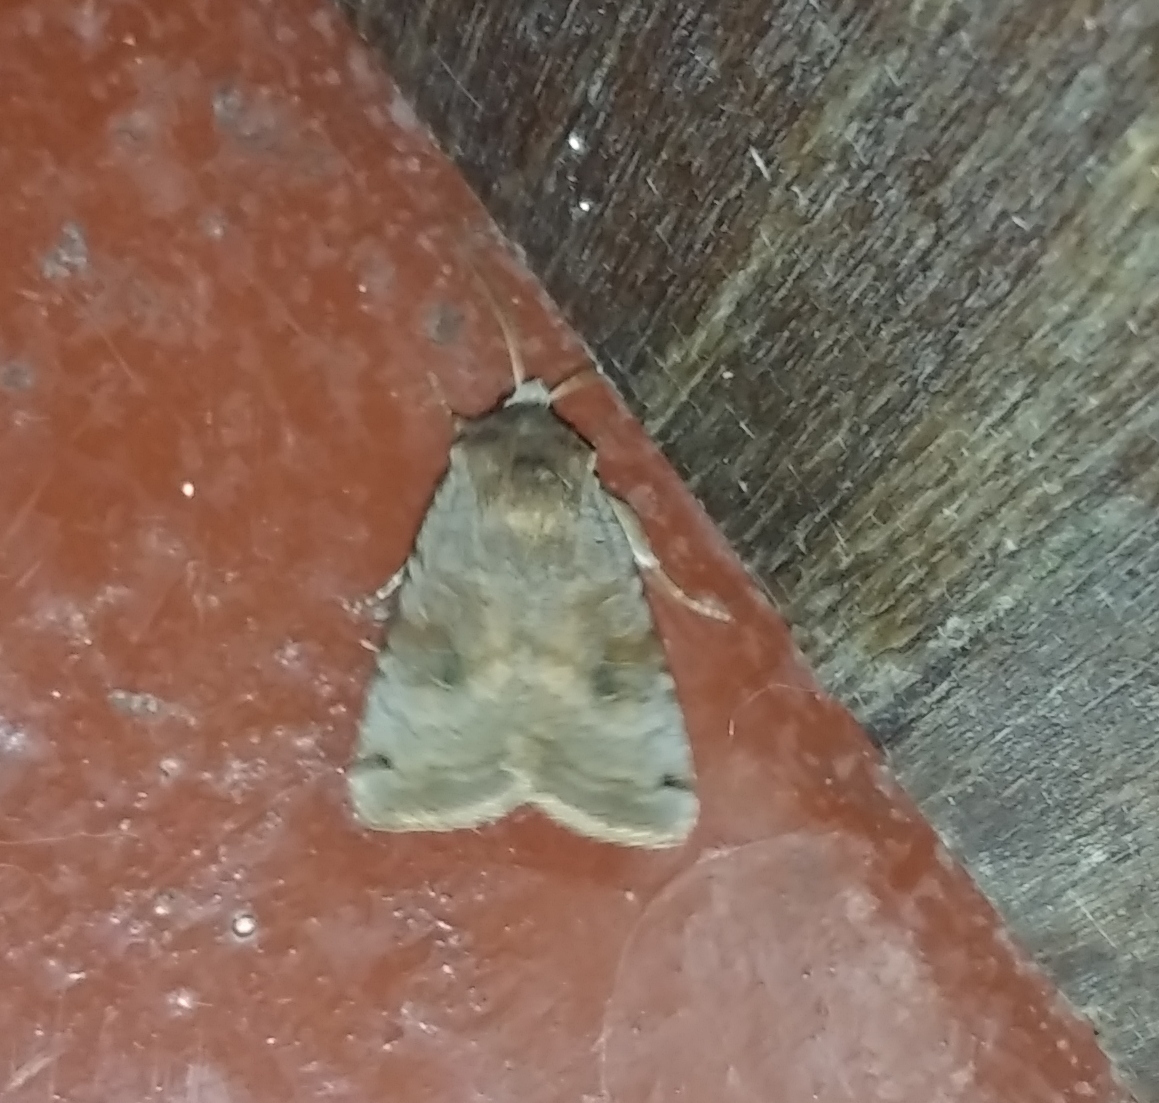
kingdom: Animalia
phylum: Arthropoda
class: Insecta
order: Lepidoptera
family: Noctuidae
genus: Xestia
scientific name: Xestia baja
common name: Dotted clay
